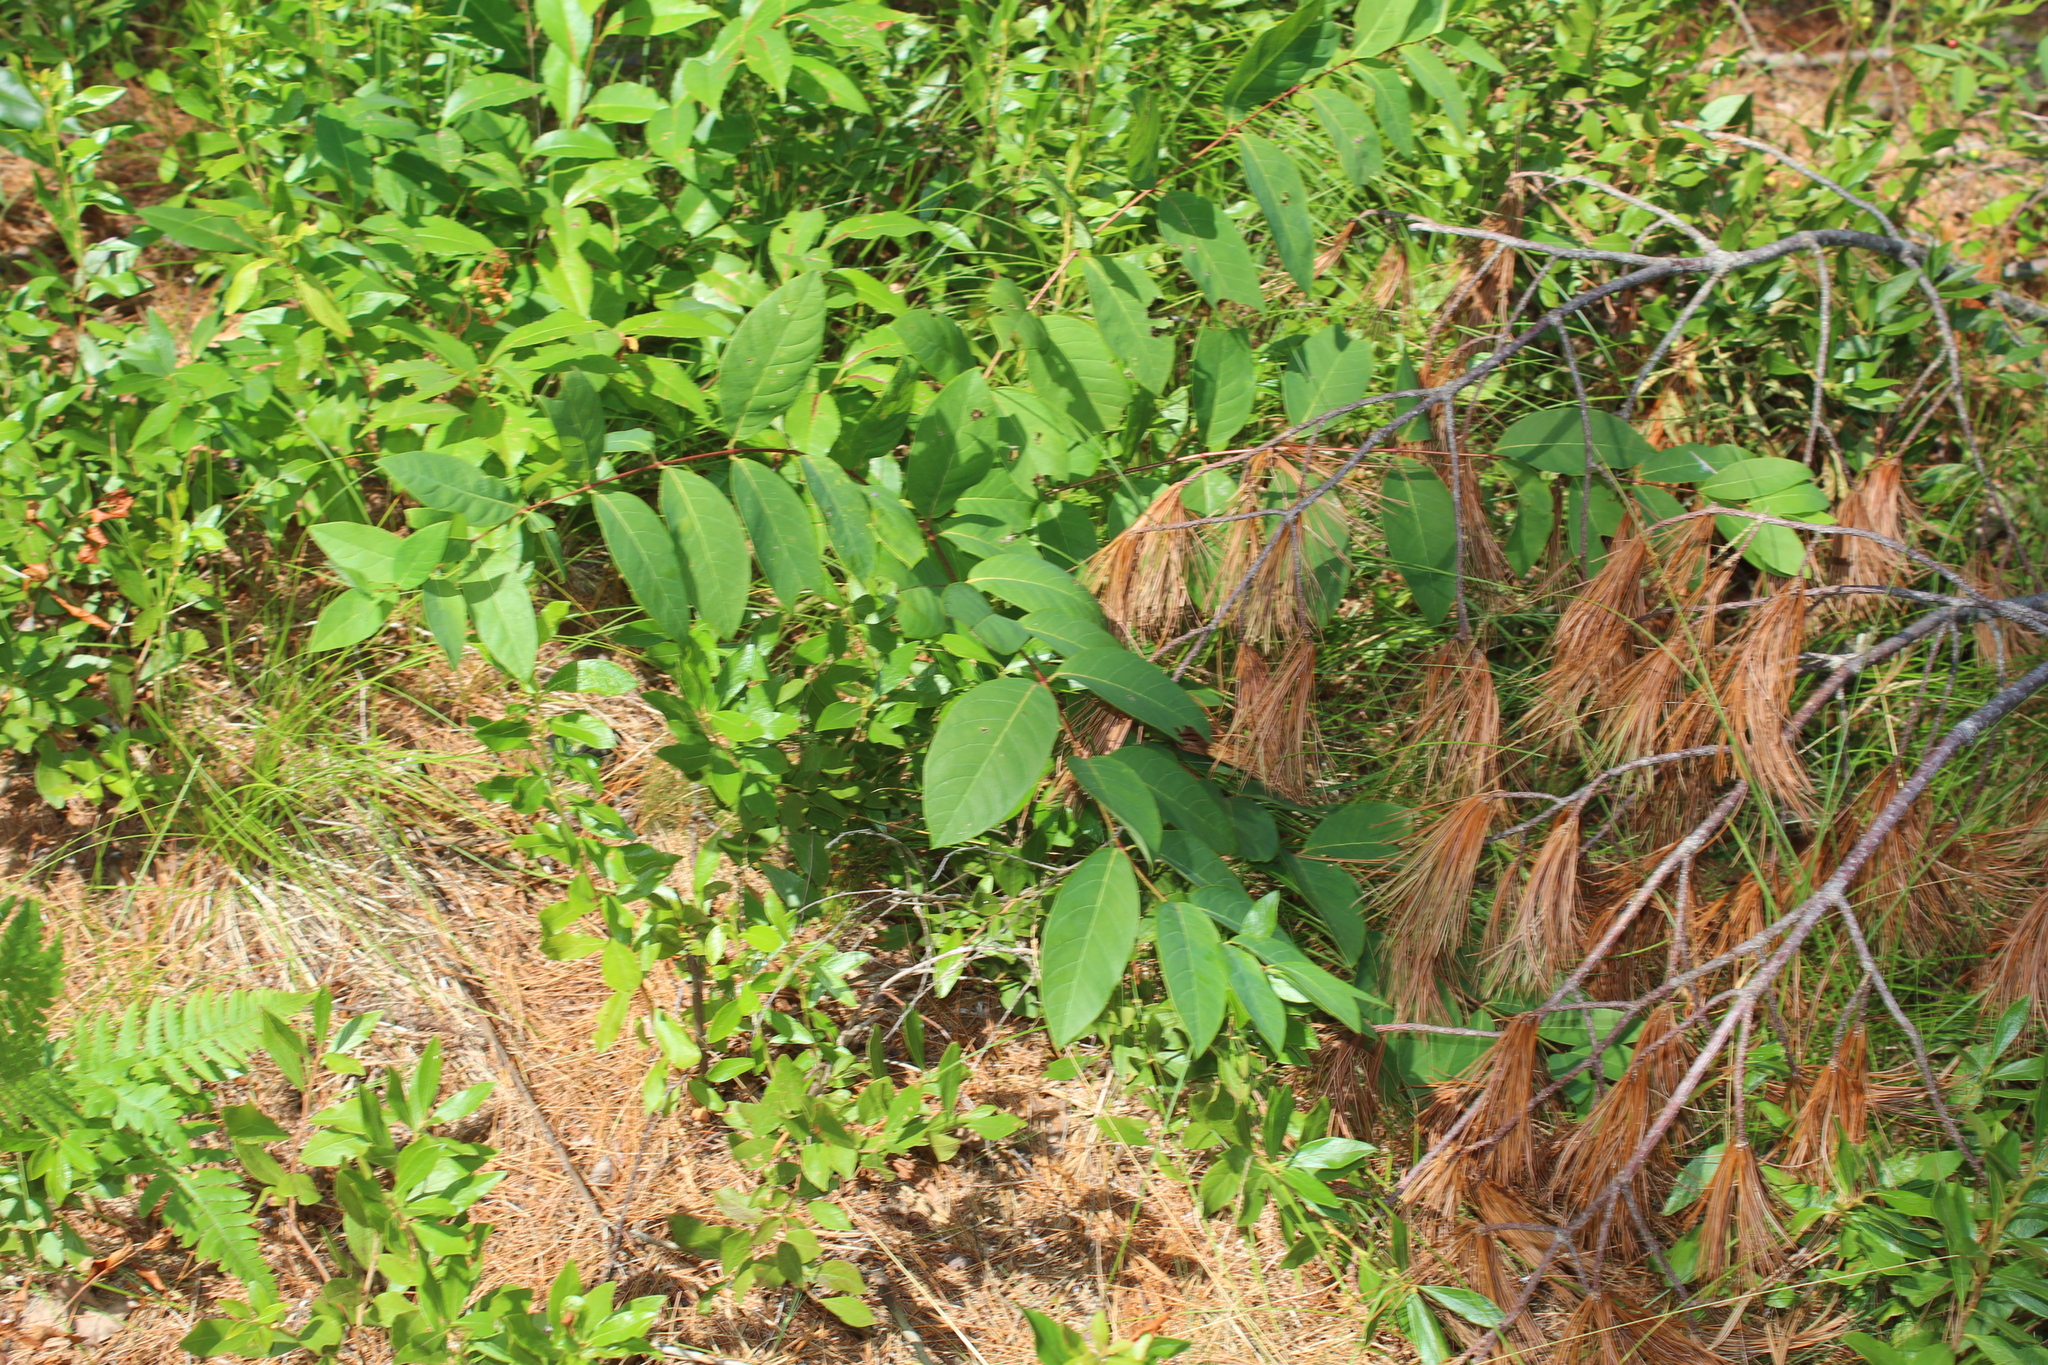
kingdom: Plantae
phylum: Tracheophyta
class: Magnoliopsida
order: Gentianales
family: Apocynaceae
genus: Apocynum
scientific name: Apocynum androsaemifolium
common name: Spreading dogbane
